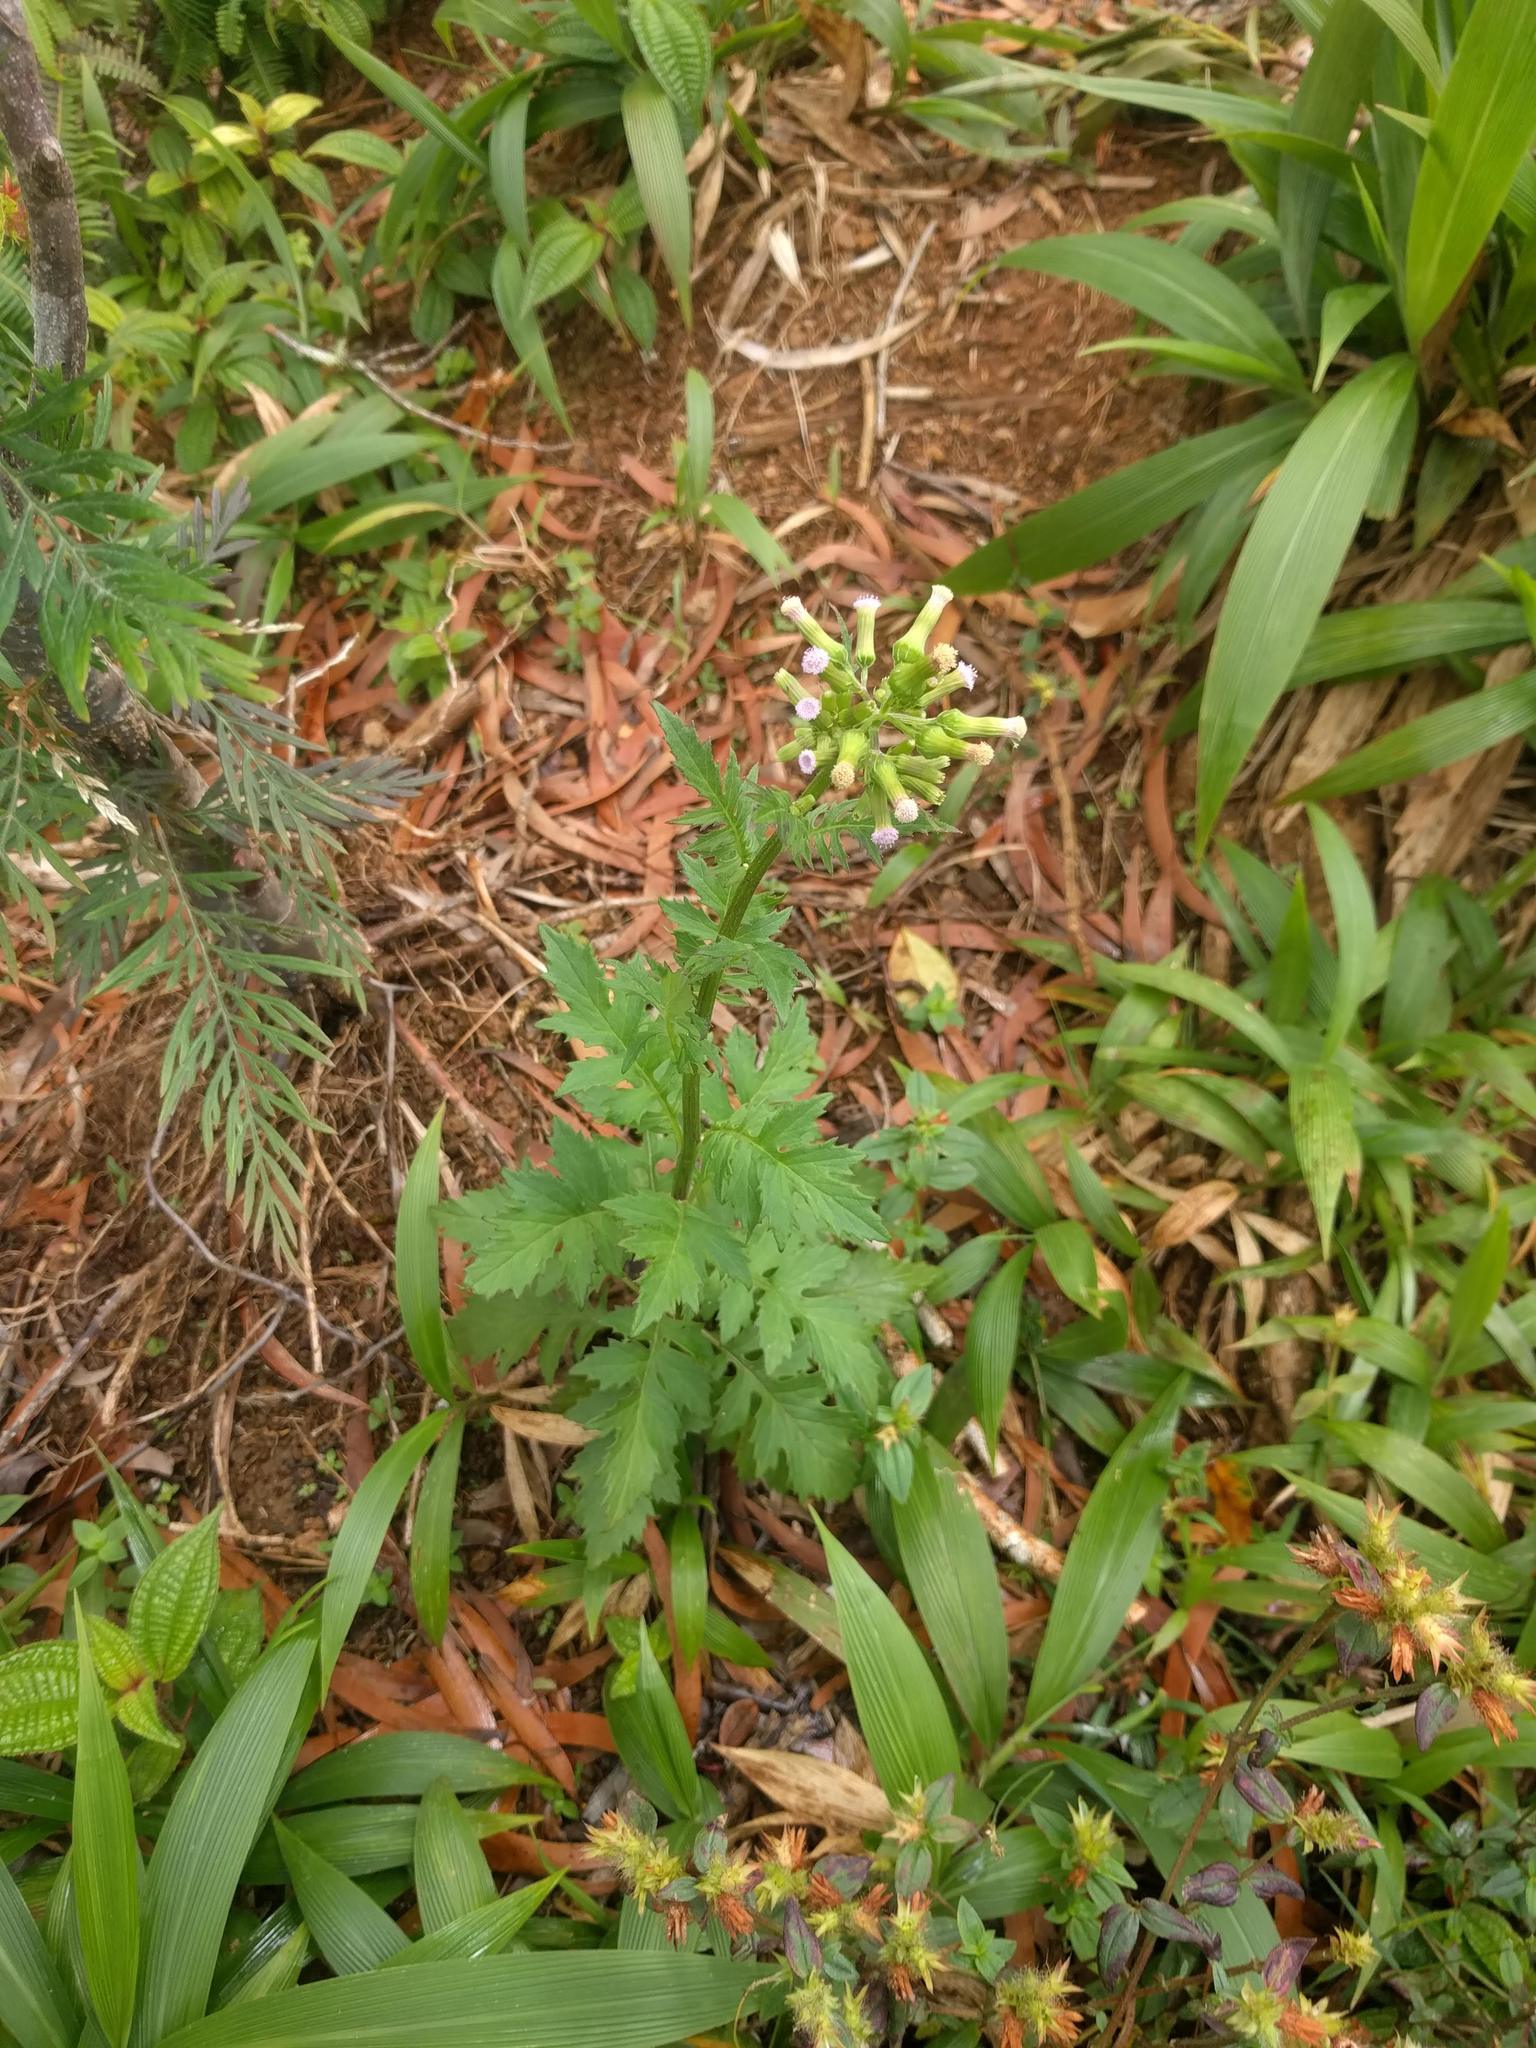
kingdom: Plantae
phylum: Tracheophyta
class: Magnoliopsida
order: Asterales
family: Asteraceae
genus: Erechtites
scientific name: Erechtites valerianifolius
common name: Tropical burnweed
